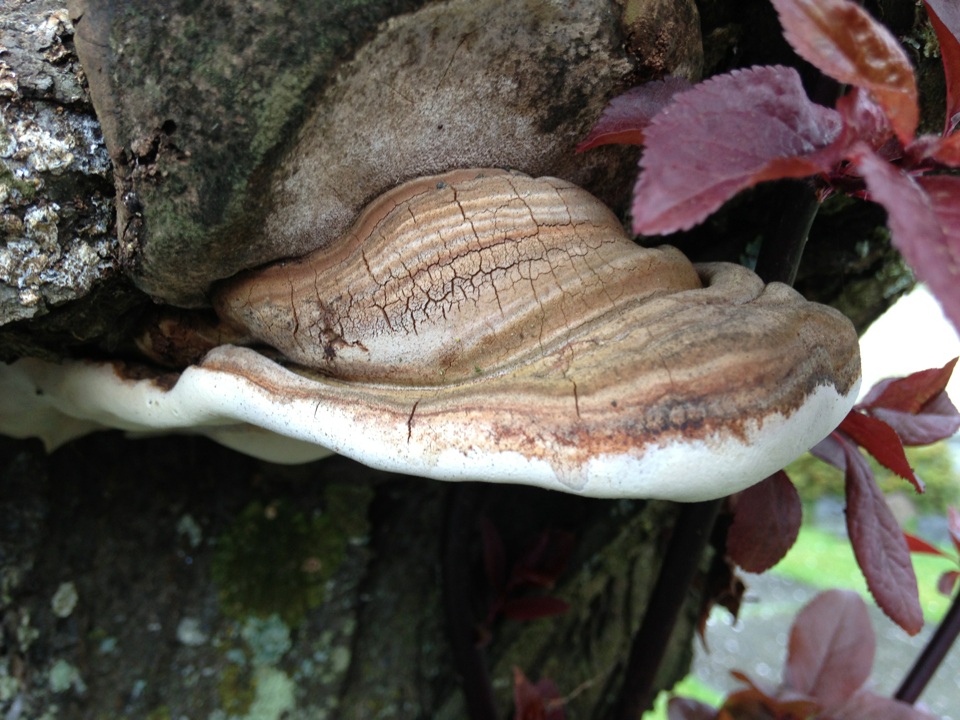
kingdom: Fungi
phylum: Basidiomycota
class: Agaricomycetes
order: Polyporales
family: Polyporaceae
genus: Ganoderma
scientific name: Ganoderma applanatum
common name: Artist's bracket
